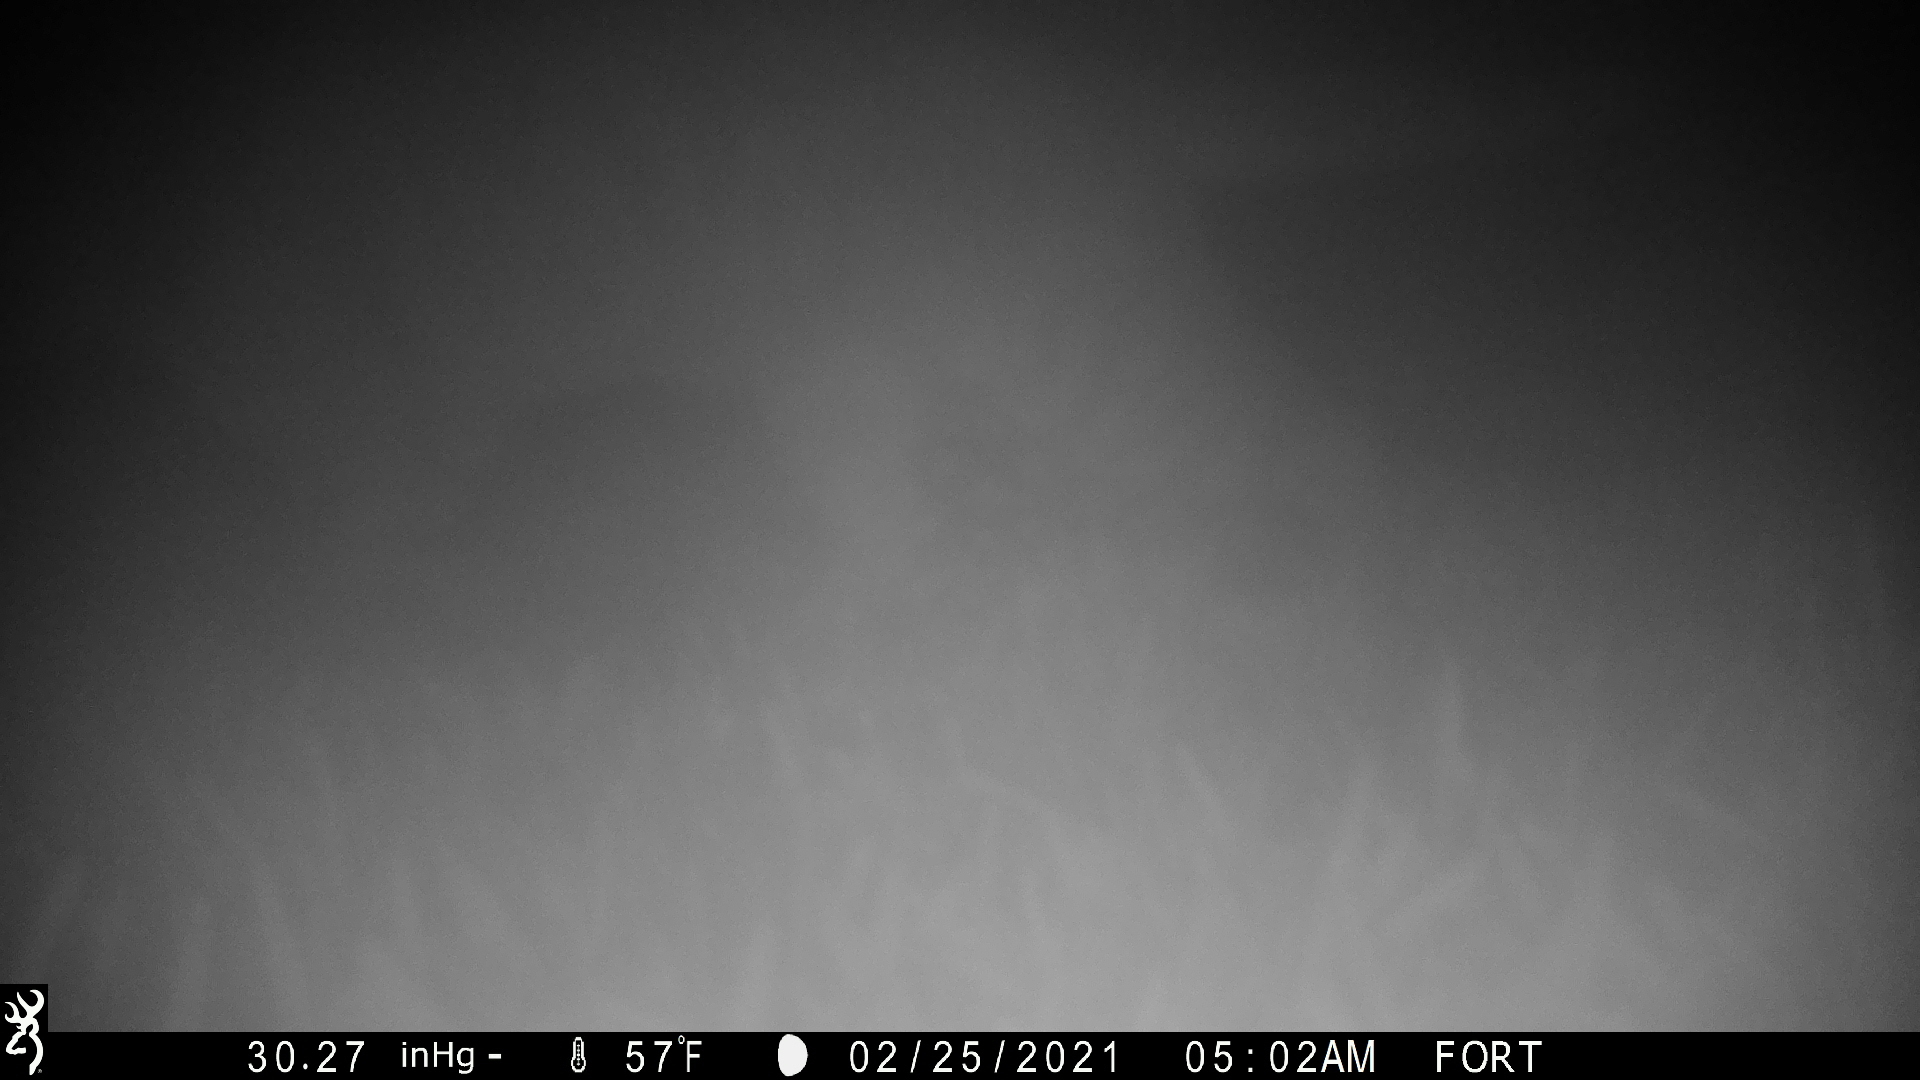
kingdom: Animalia
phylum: Chordata
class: Mammalia
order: Carnivora
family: Felidae
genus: Felis
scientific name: Felis catus
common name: Domestic cat
